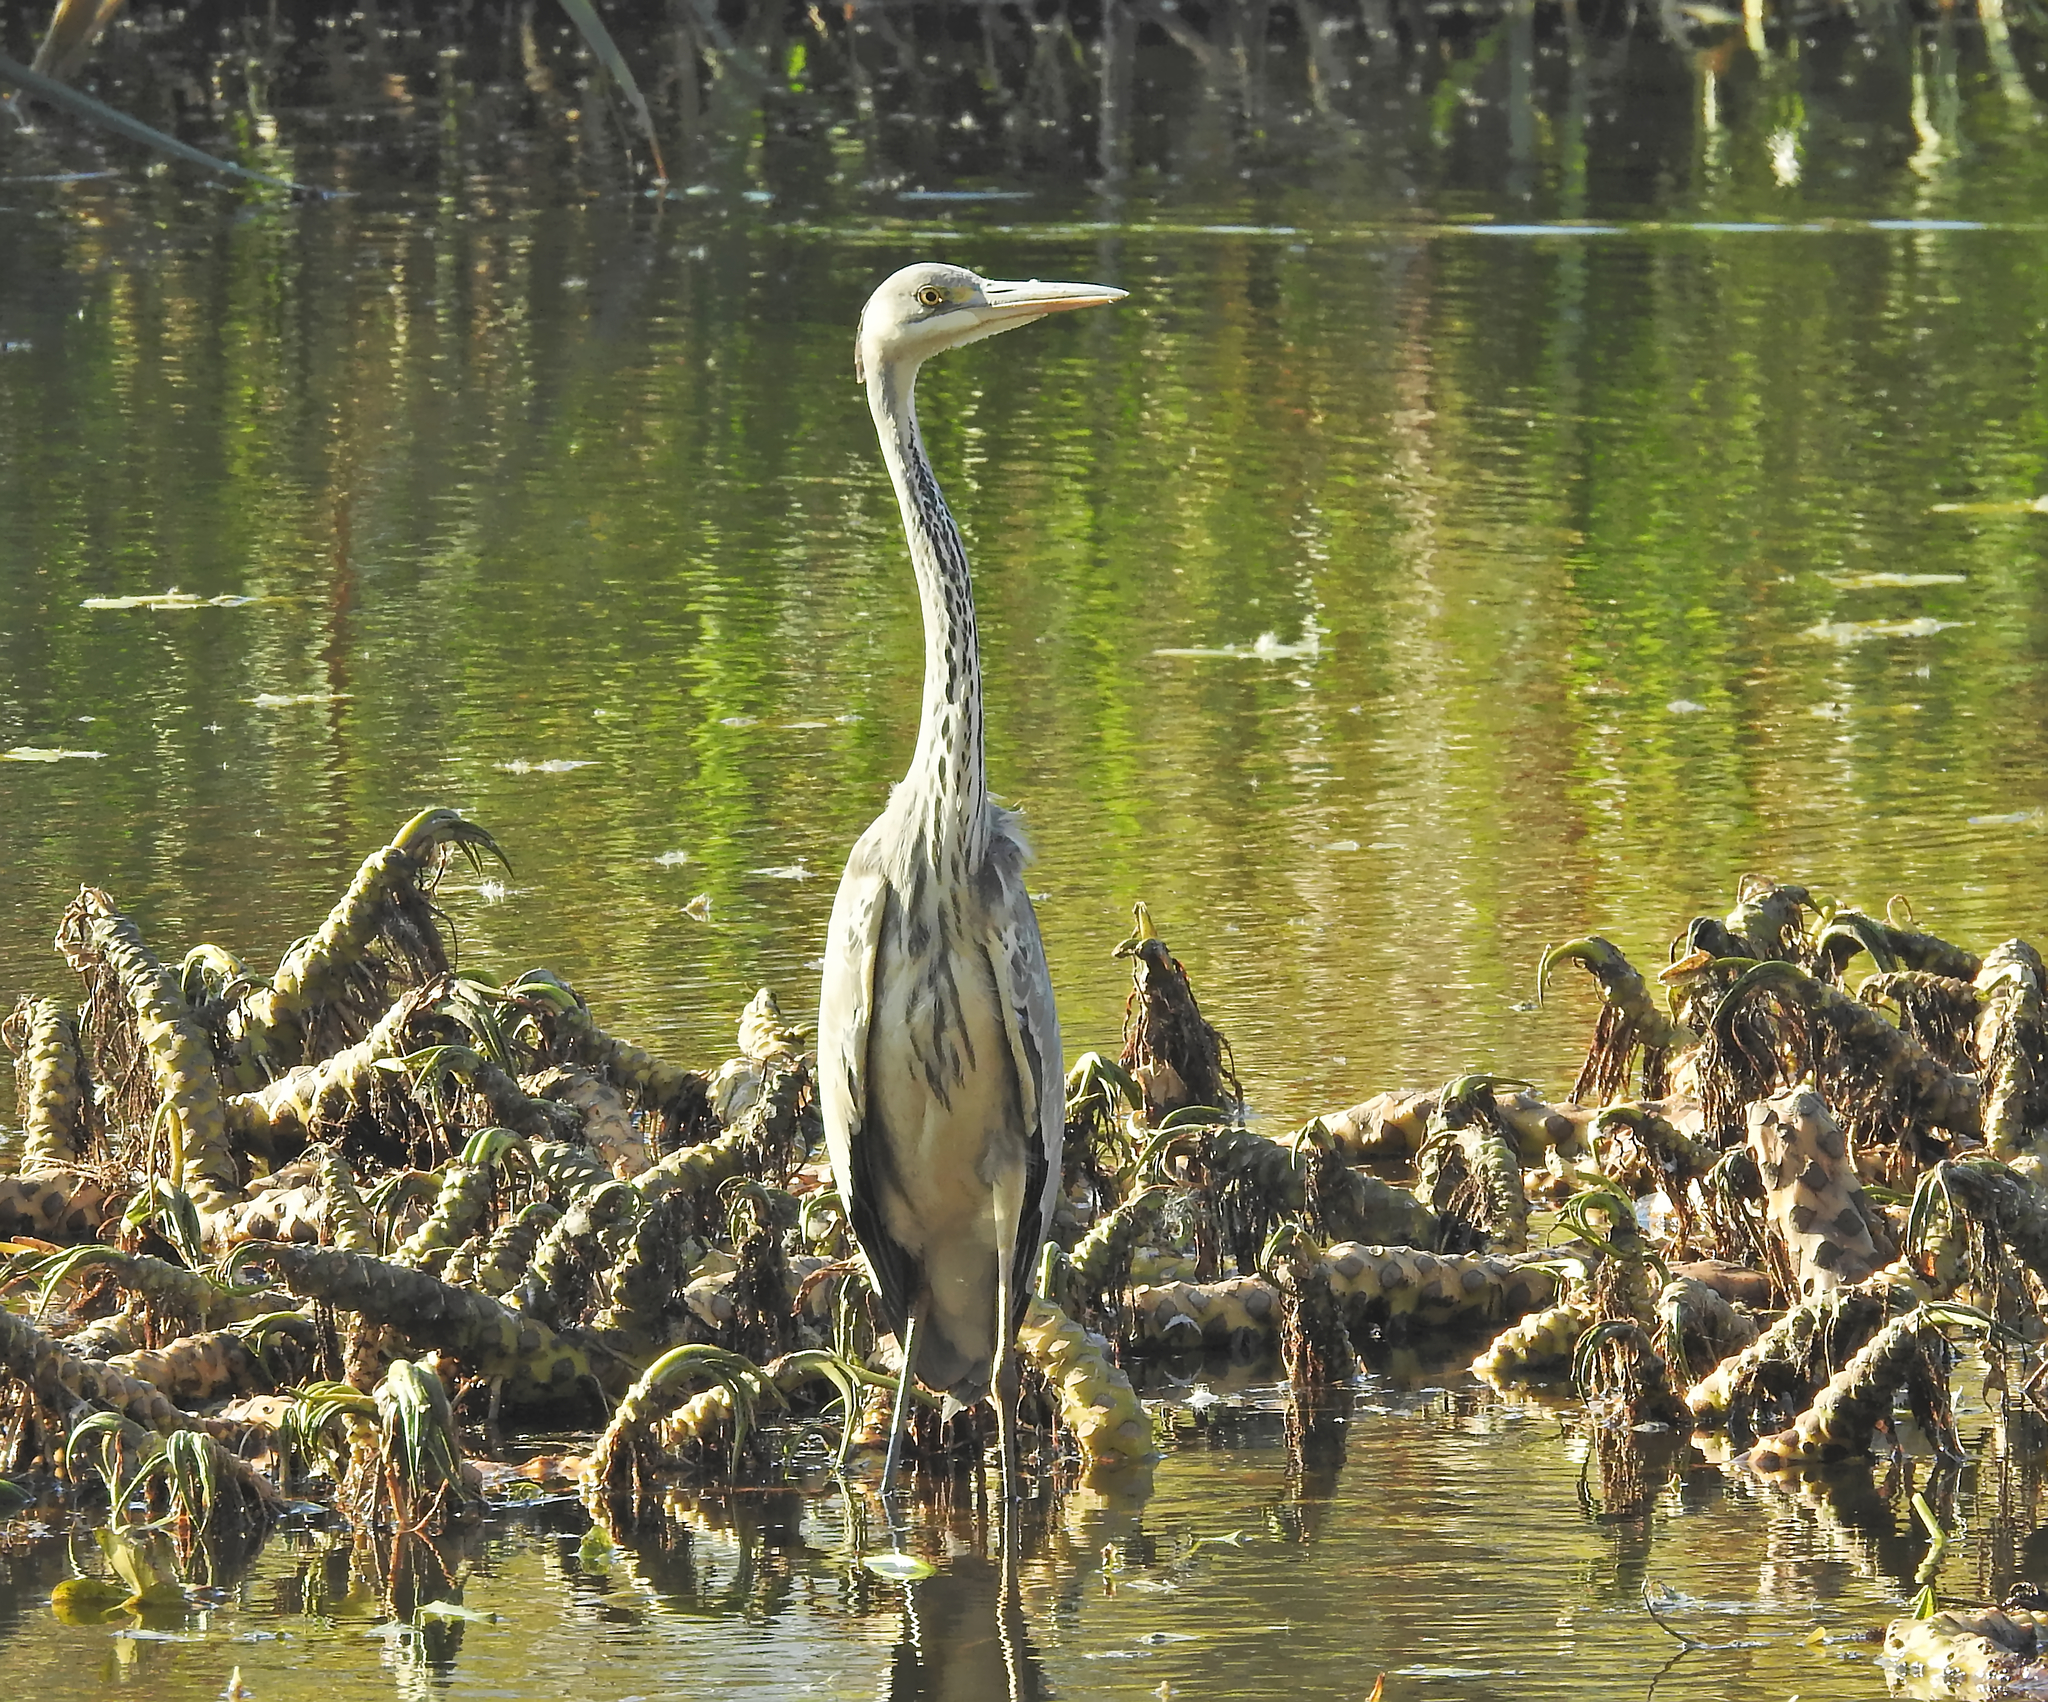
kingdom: Animalia
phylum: Chordata
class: Aves
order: Pelecaniformes
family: Ardeidae
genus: Ardea
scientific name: Ardea cinerea
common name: Grey heron
